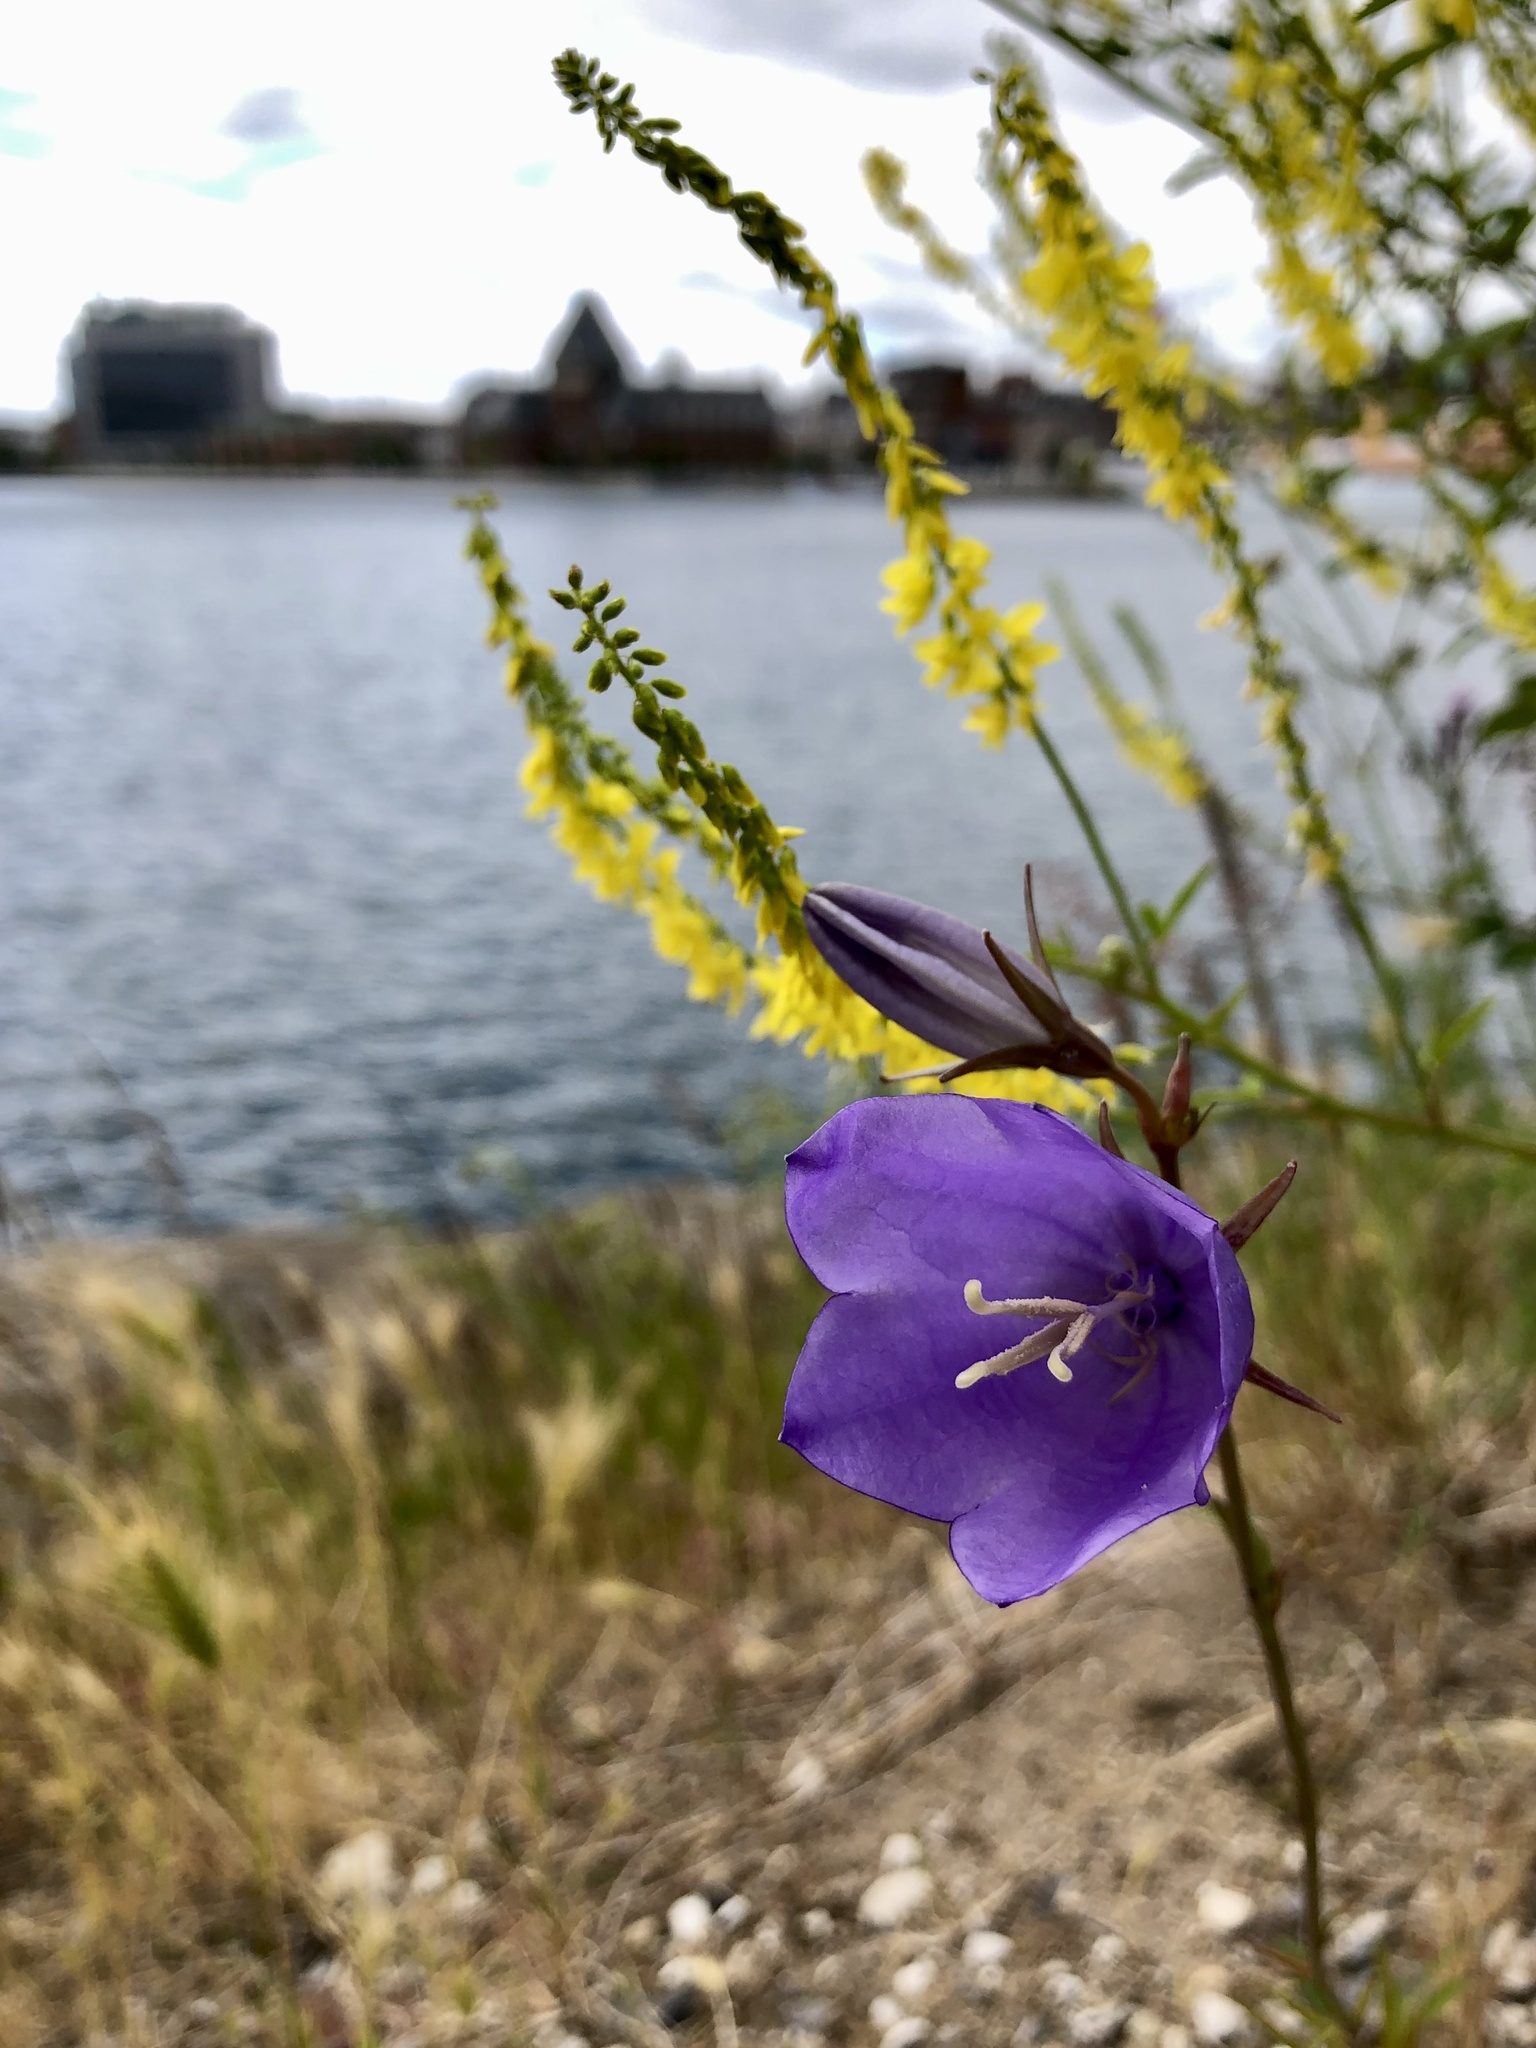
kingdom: Plantae
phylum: Tracheophyta
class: Magnoliopsida
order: Asterales
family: Campanulaceae
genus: Campanula
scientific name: Campanula persicifolia
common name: Peach-leaved bellflower
